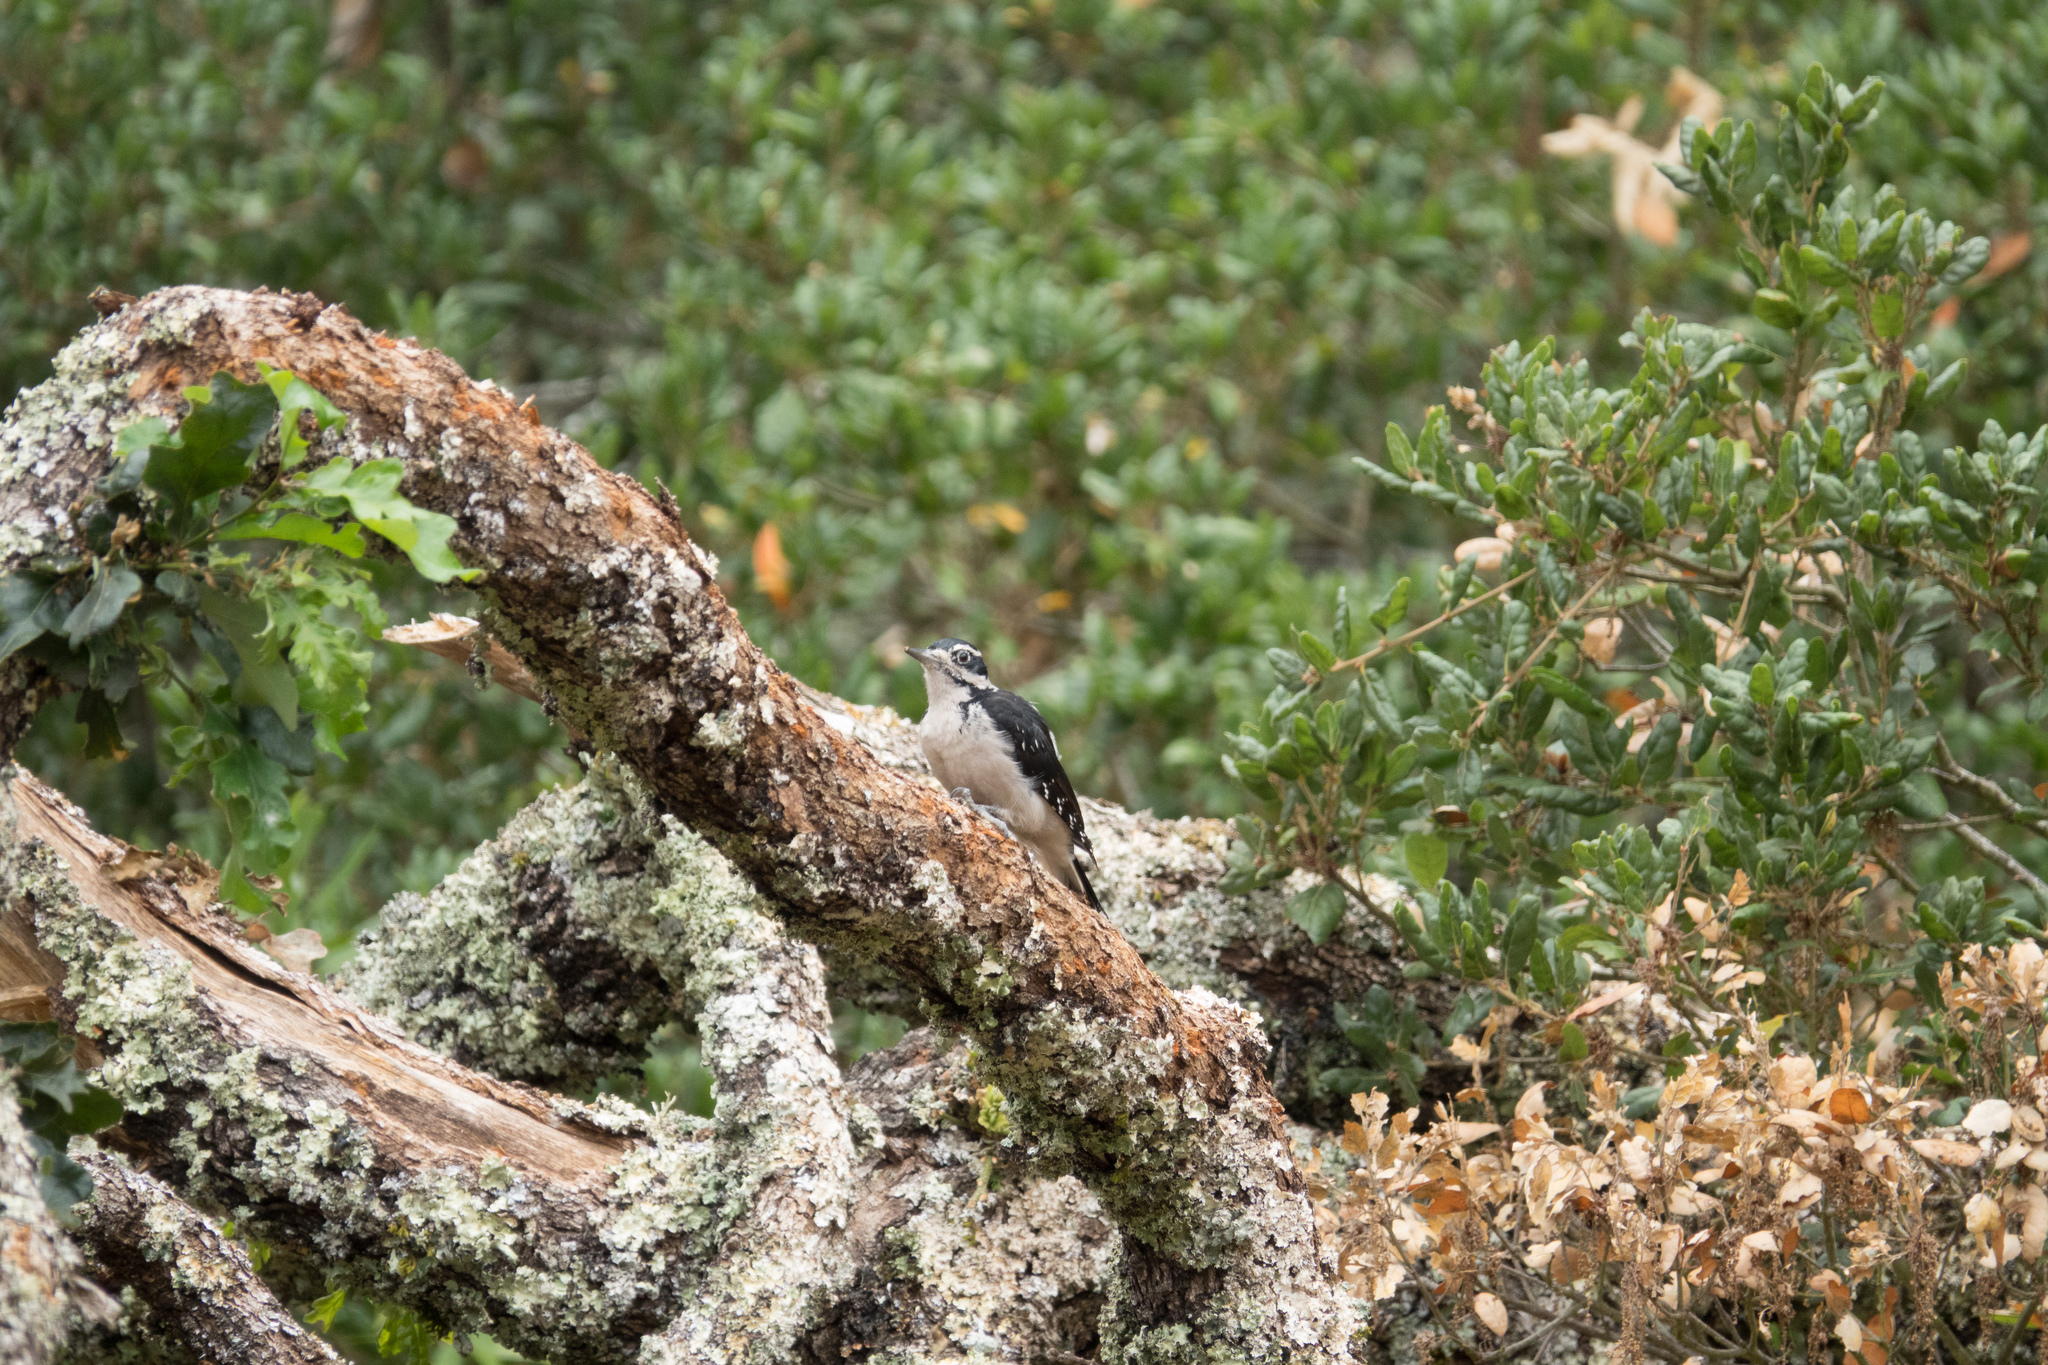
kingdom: Animalia
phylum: Chordata
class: Aves
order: Piciformes
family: Picidae
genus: Leuconotopicus
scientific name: Leuconotopicus villosus
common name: Hairy woodpecker
